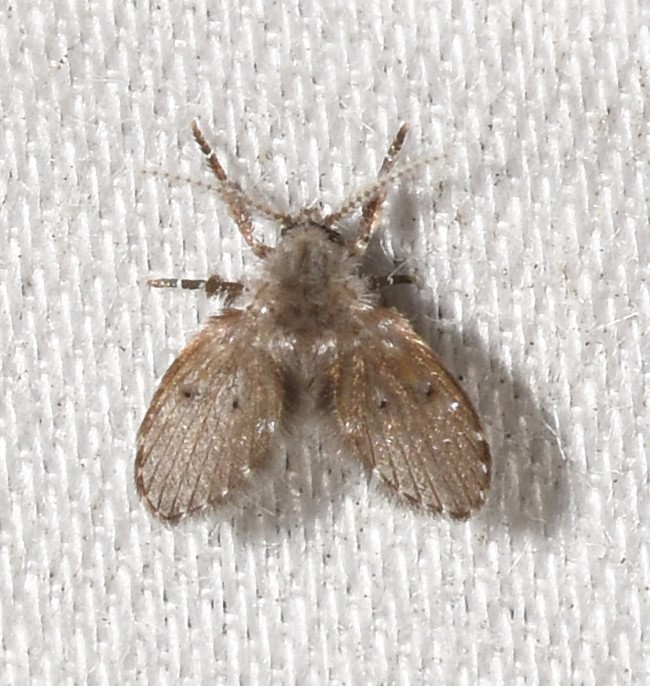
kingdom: Animalia
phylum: Arthropoda
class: Insecta
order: Diptera
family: Psychodidae
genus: Clogmia
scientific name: Clogmia albipunctatus
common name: White-spotted moth fly
